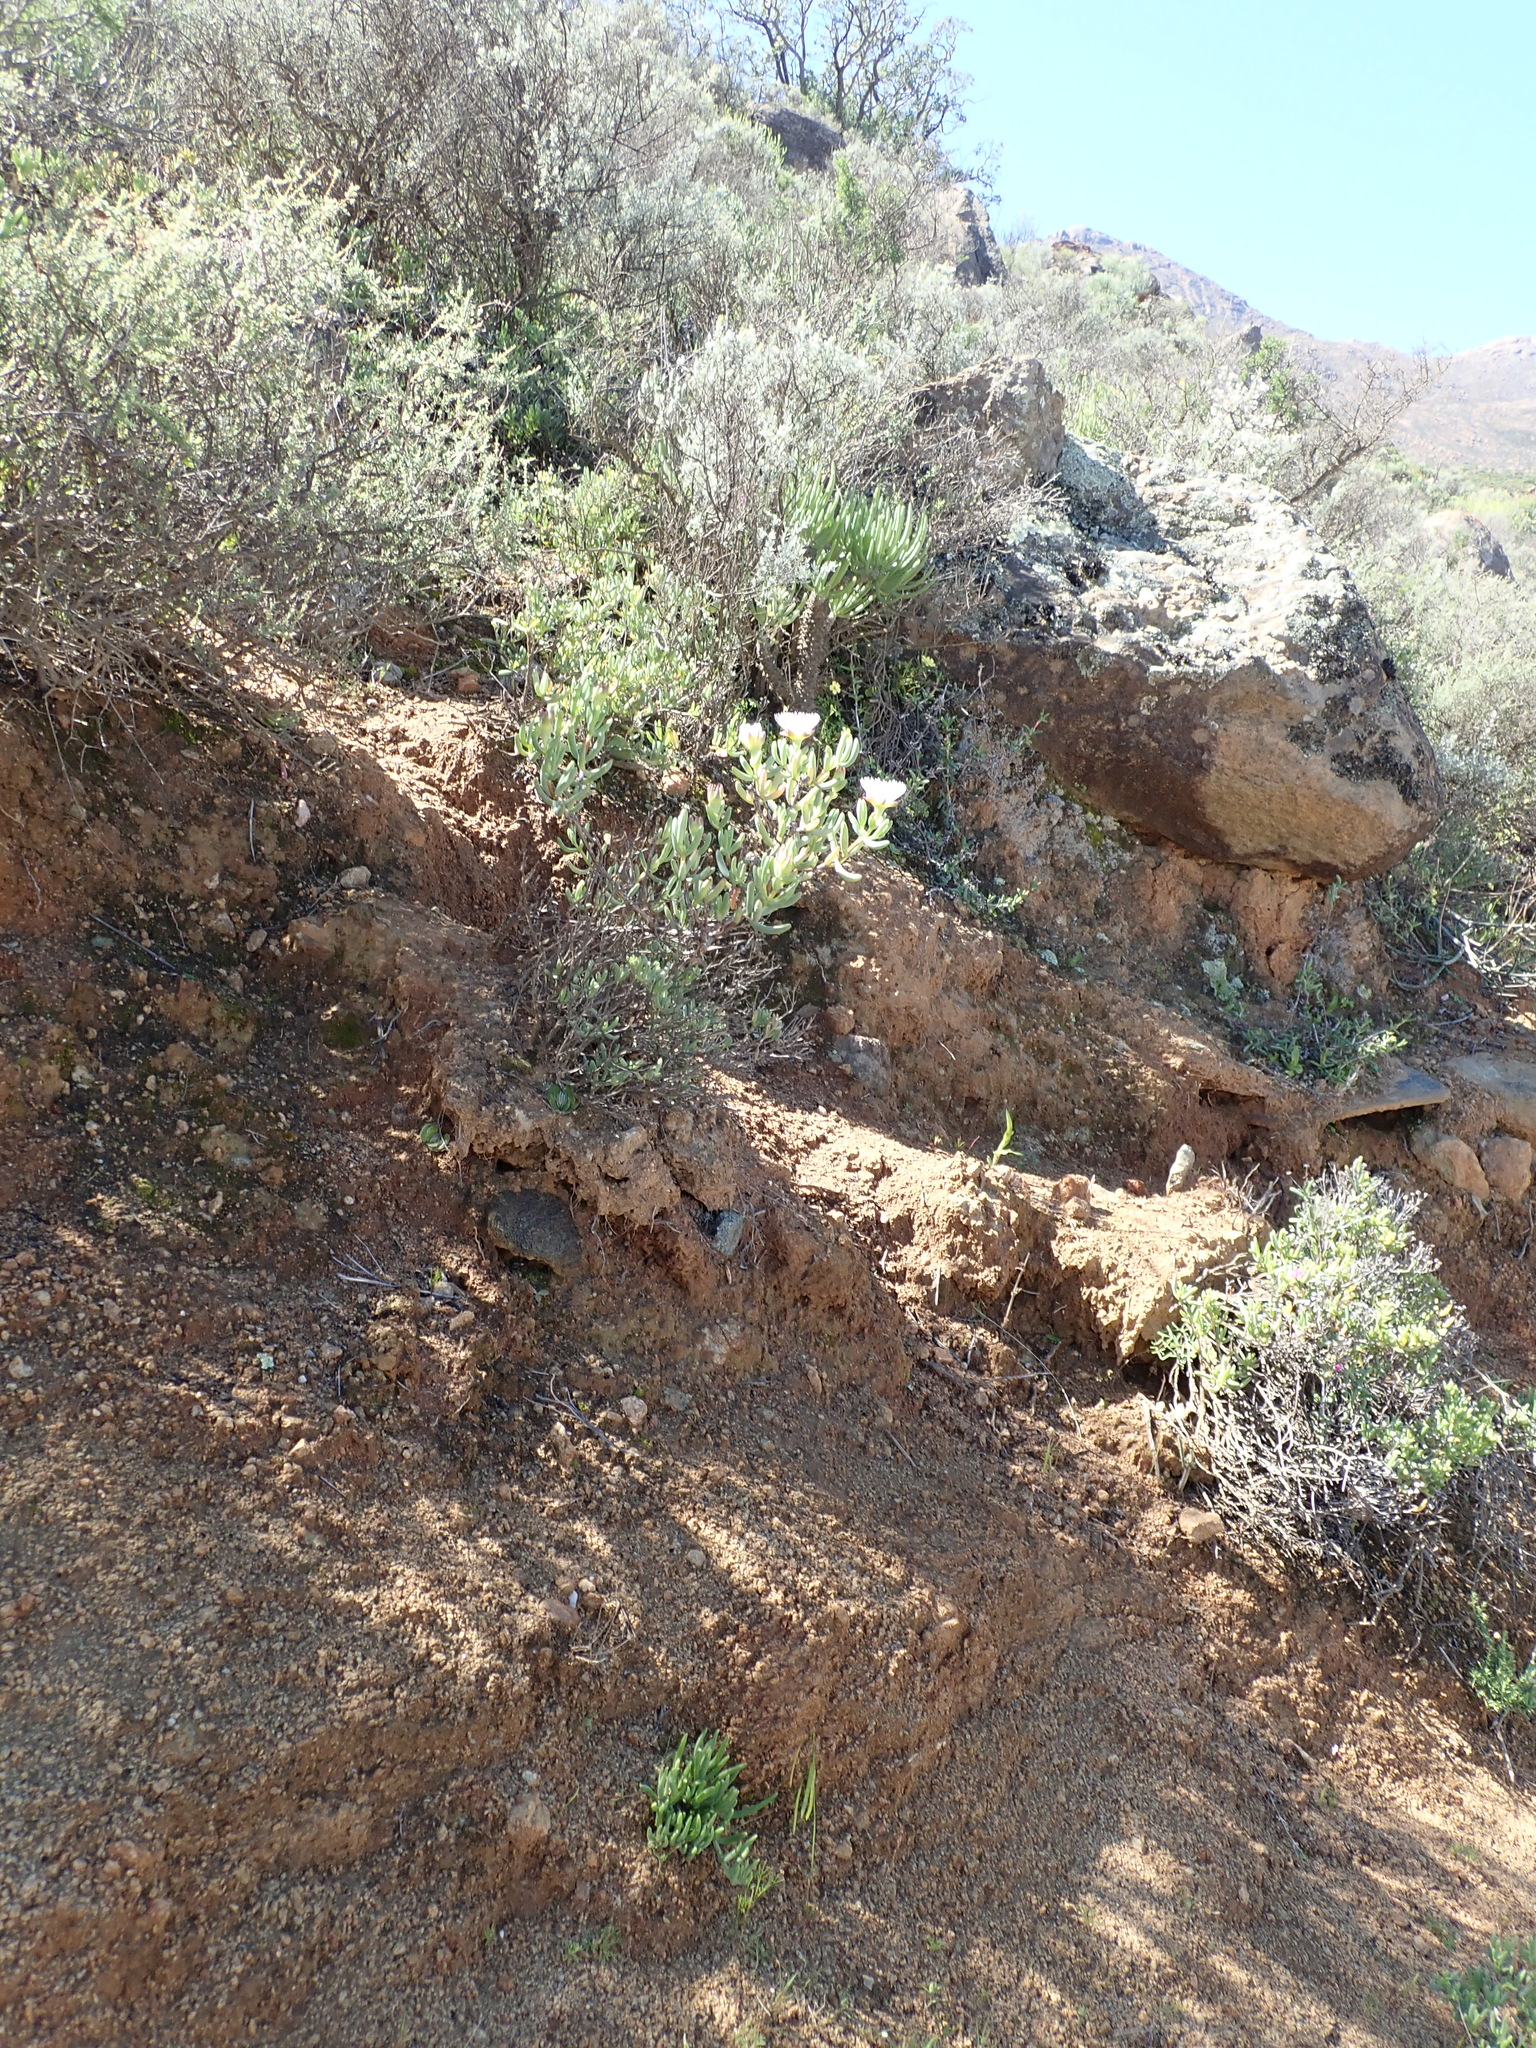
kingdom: Plantae
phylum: Tracheophyta
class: Magnoliopsida
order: Caryophyllales
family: Aizoaceae
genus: Lampranthus
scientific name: Lampranthus watermeyeri
